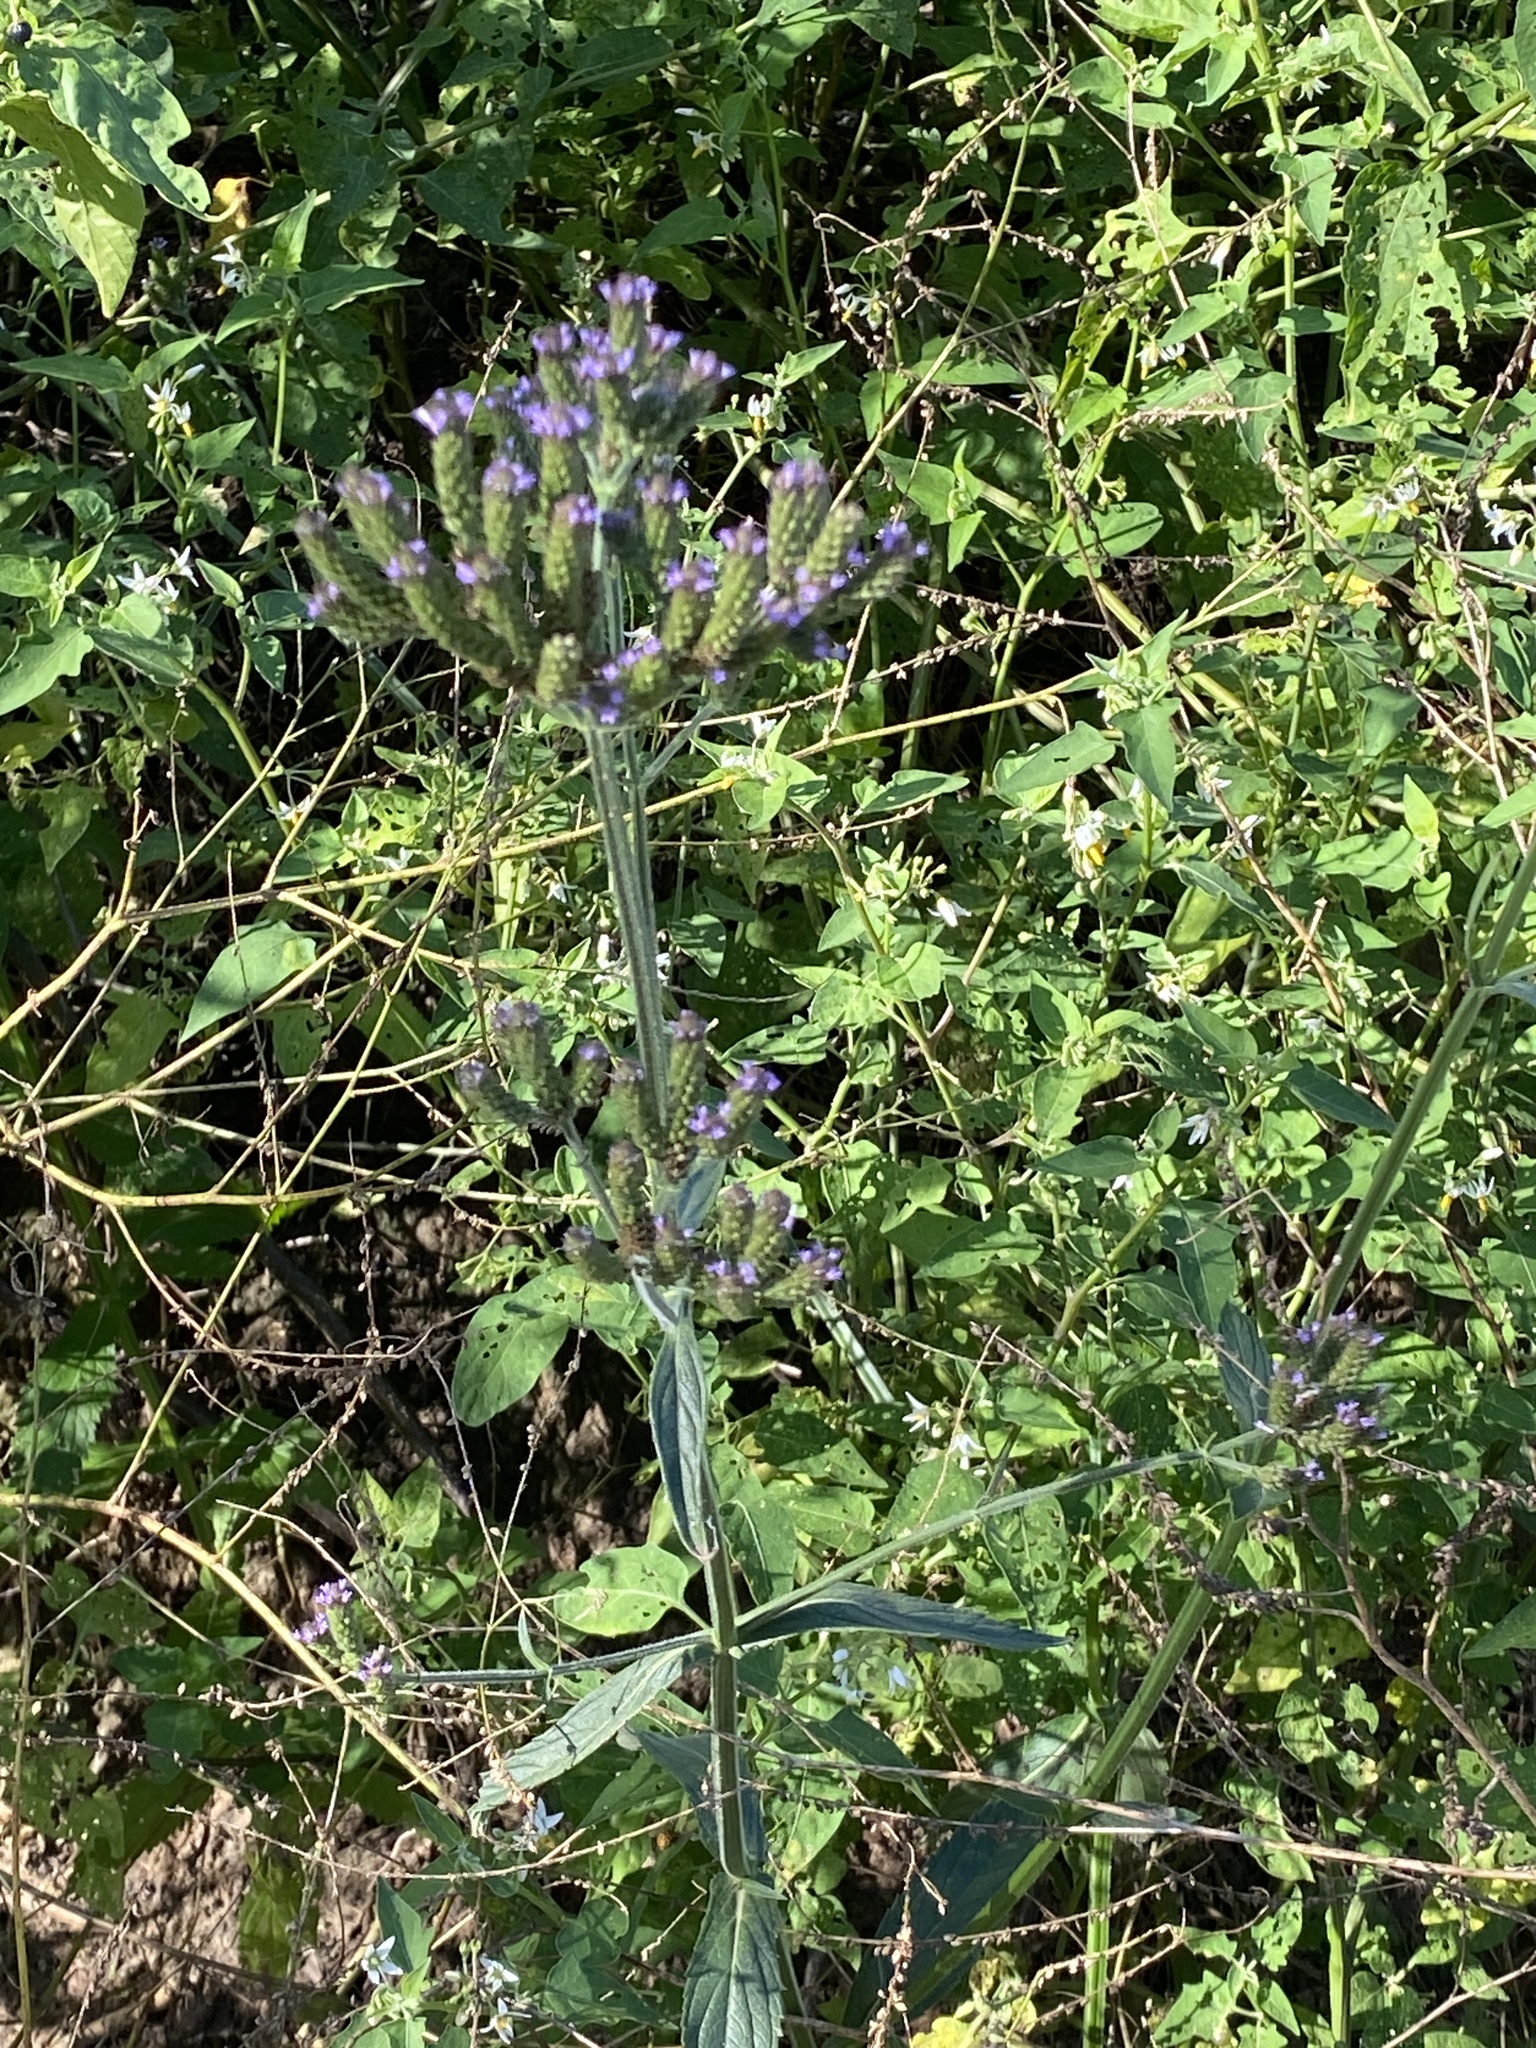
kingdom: Plantae
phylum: Tracheophyta
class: Magnoliopsida
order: Lamiales
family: Verbenaceae
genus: Verbena
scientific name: Verbena litoralis
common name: Seashore vervain
